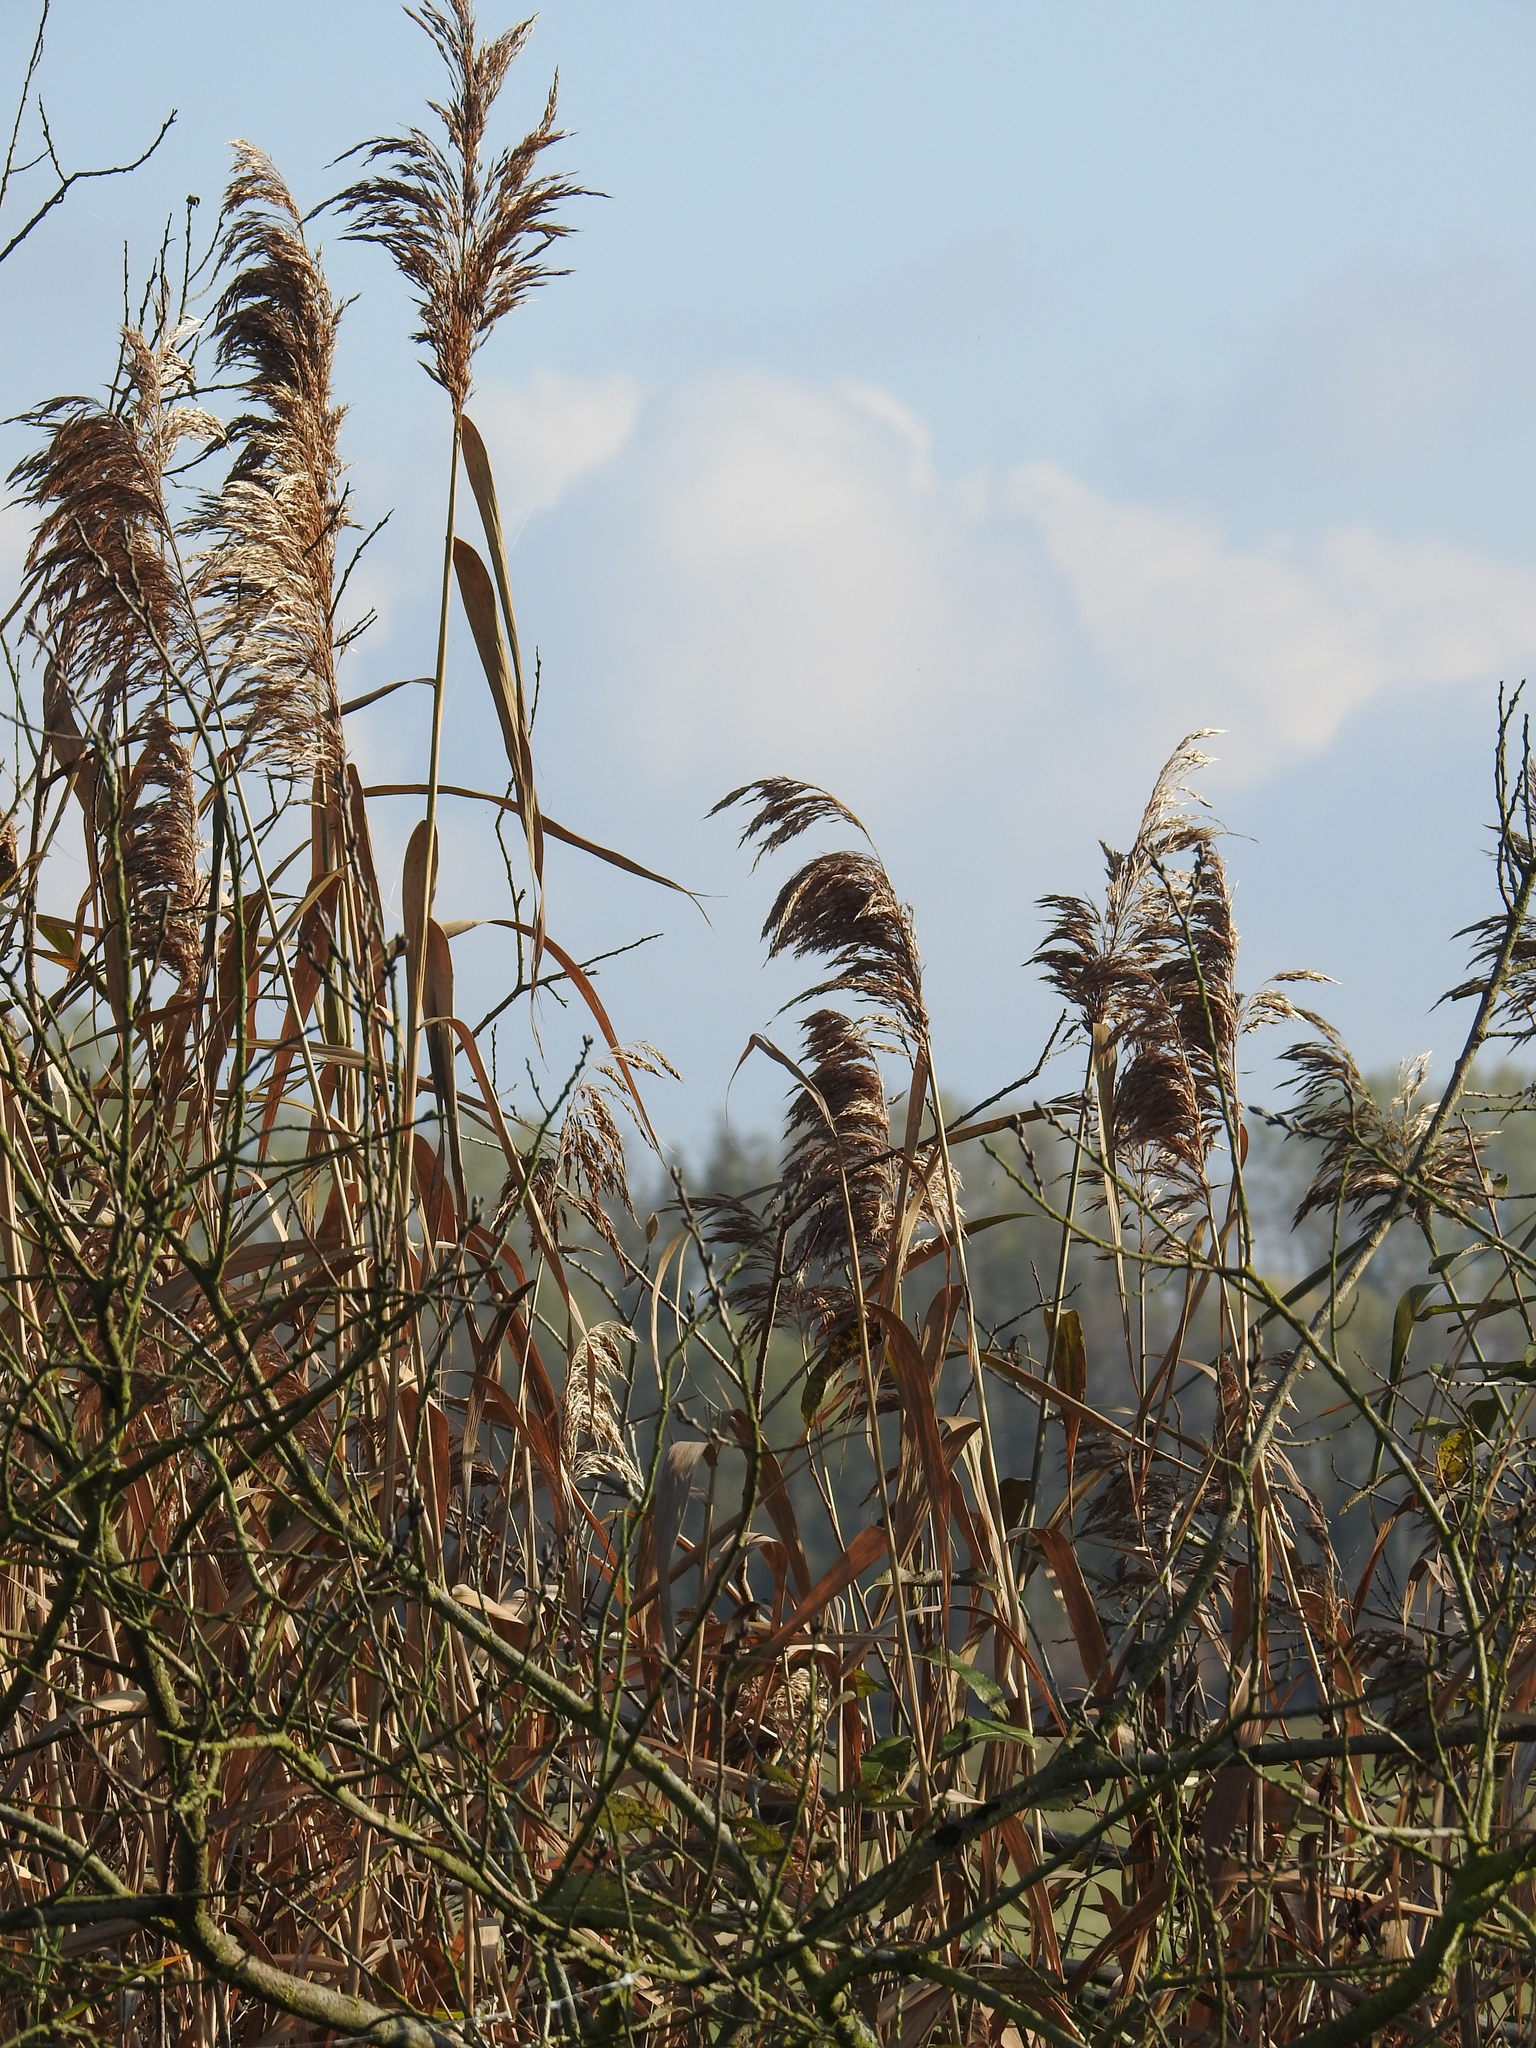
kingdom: Plantae
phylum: Tracheophyta
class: Liliopsida
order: Poales
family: Poaceae
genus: Phragmites
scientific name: Phragmites australis
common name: Common reed
